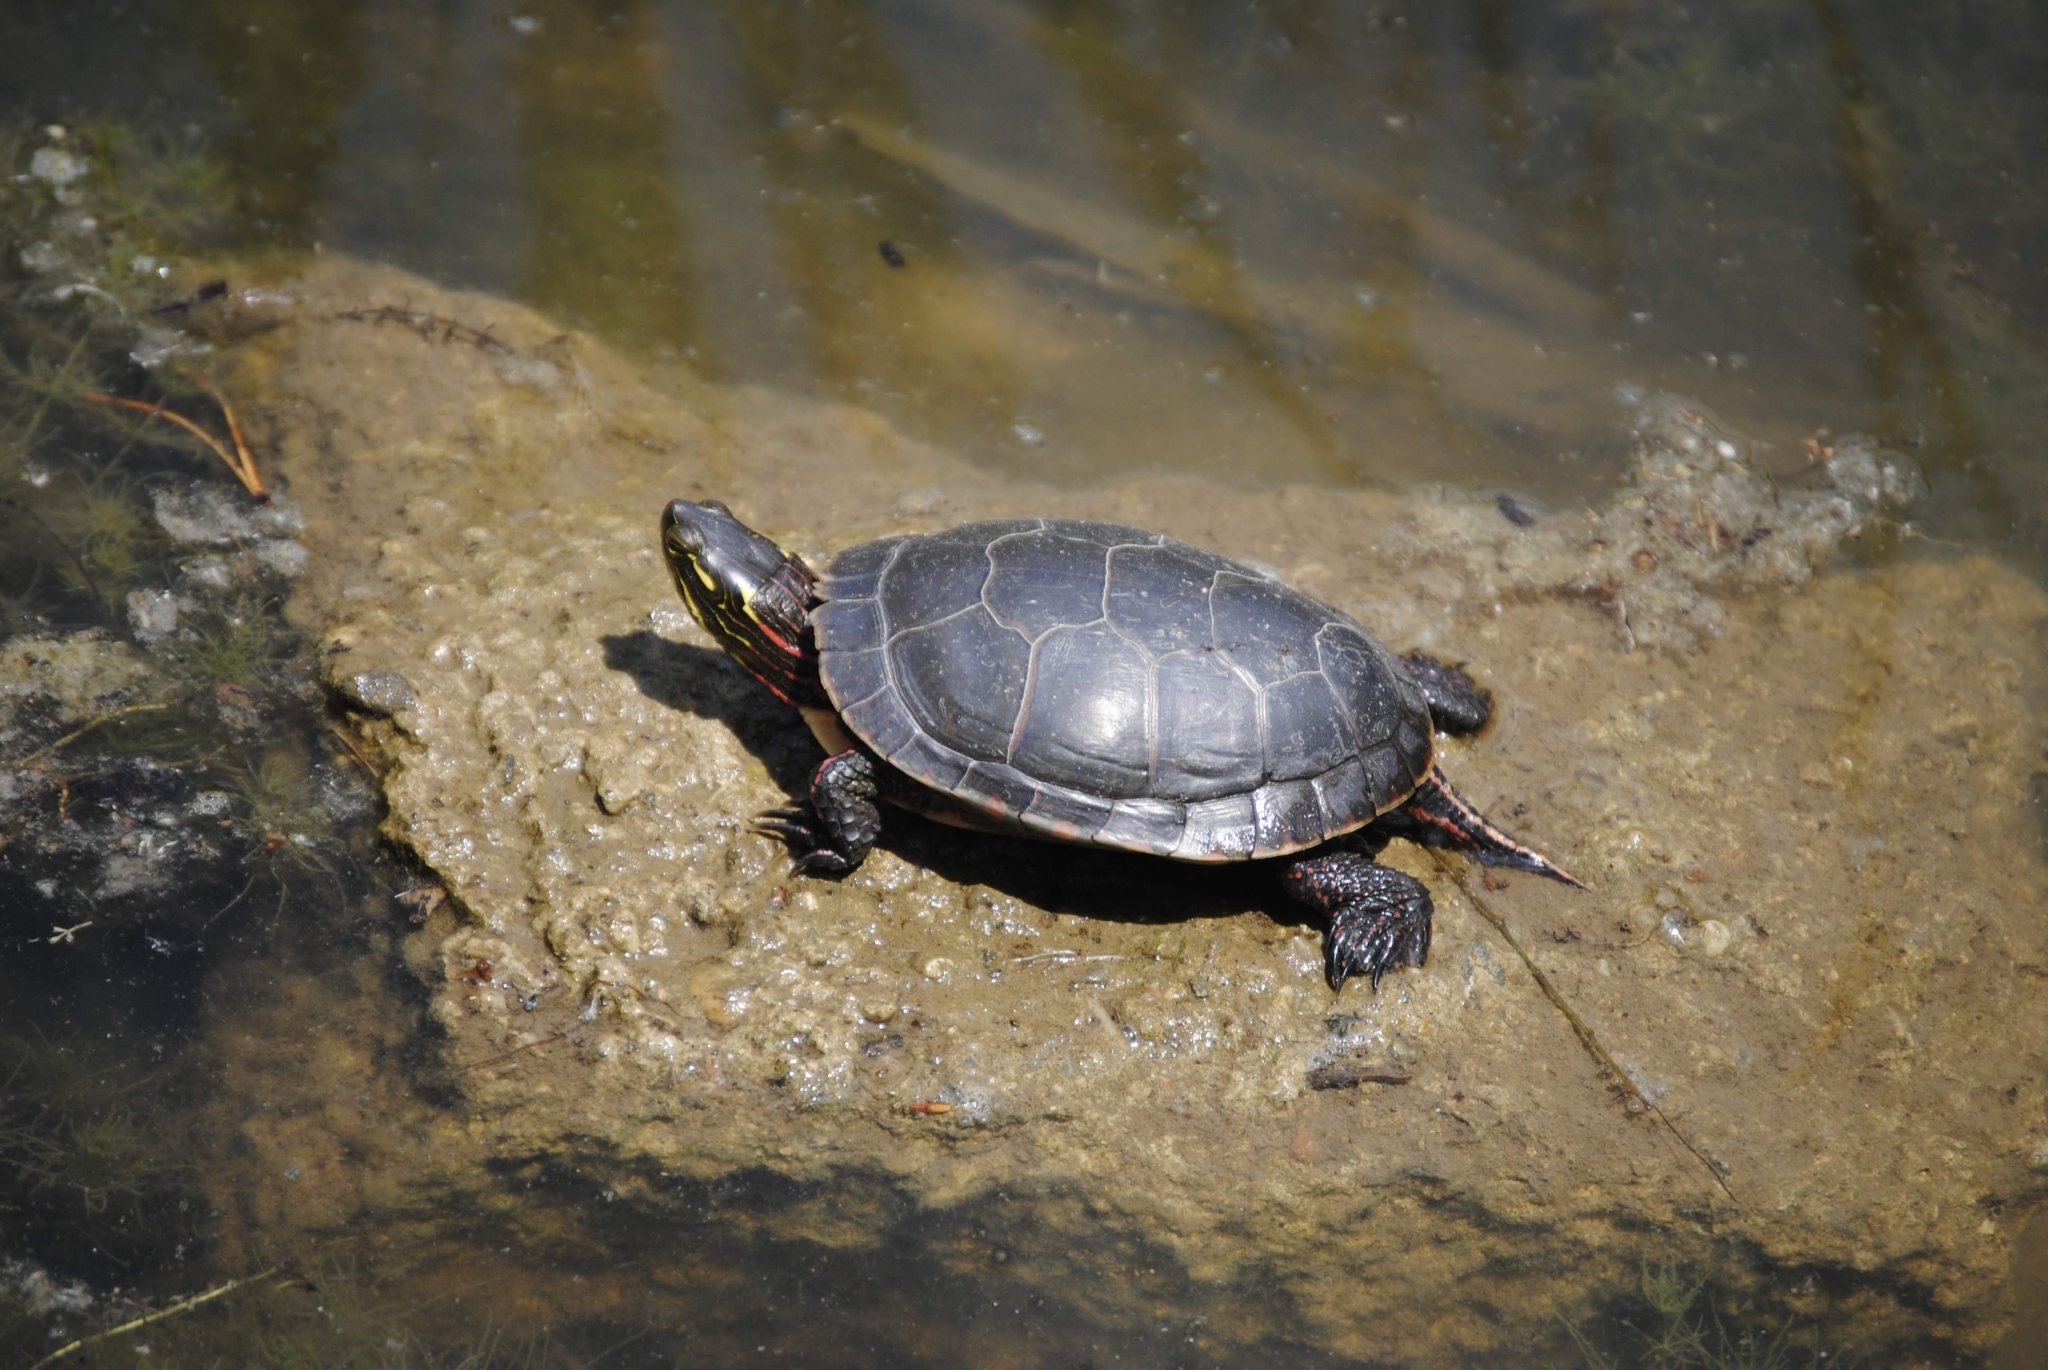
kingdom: Animalia
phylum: Chordata
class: Testudines
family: Emydidae
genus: Chrysemys
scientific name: Chrysemys picta
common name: Painted turtle
